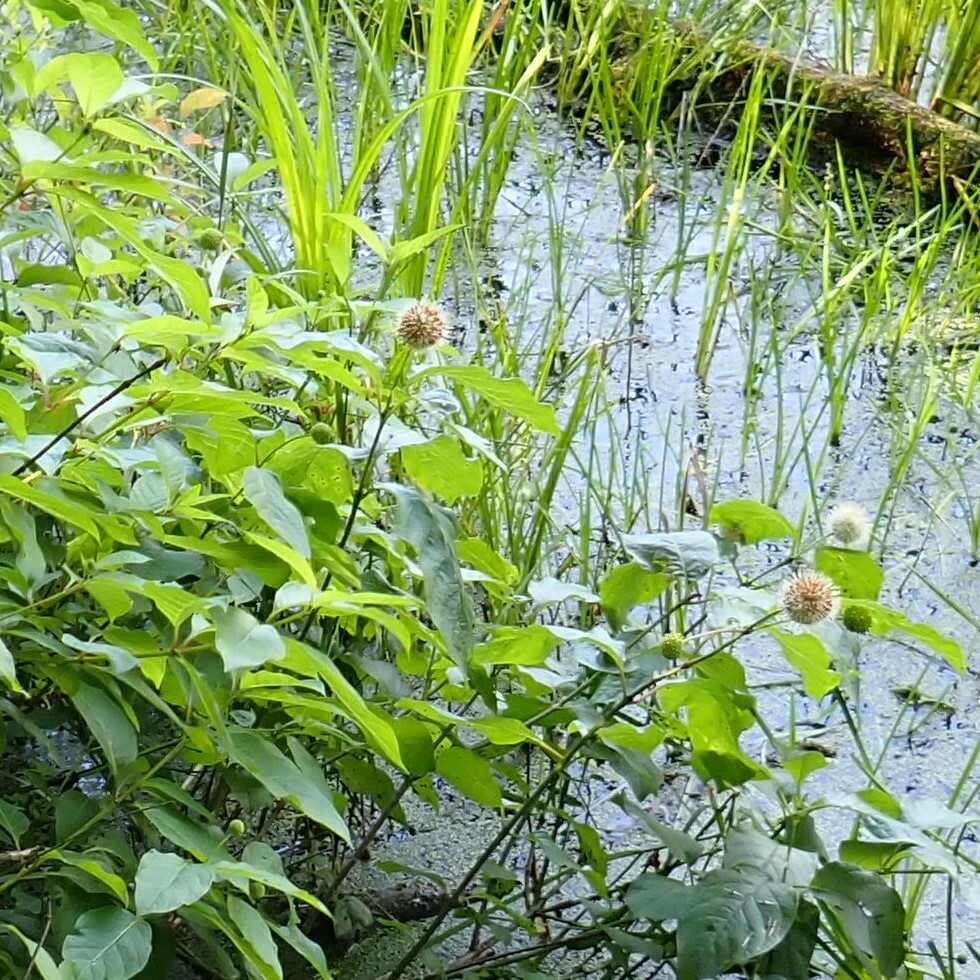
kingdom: Plantae
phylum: Tracheophyta
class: Magnoliopsida
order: Gentianales
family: Rubiaceae
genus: Cephalanthus
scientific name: Cephalanthus occidentalis
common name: Button-willow
